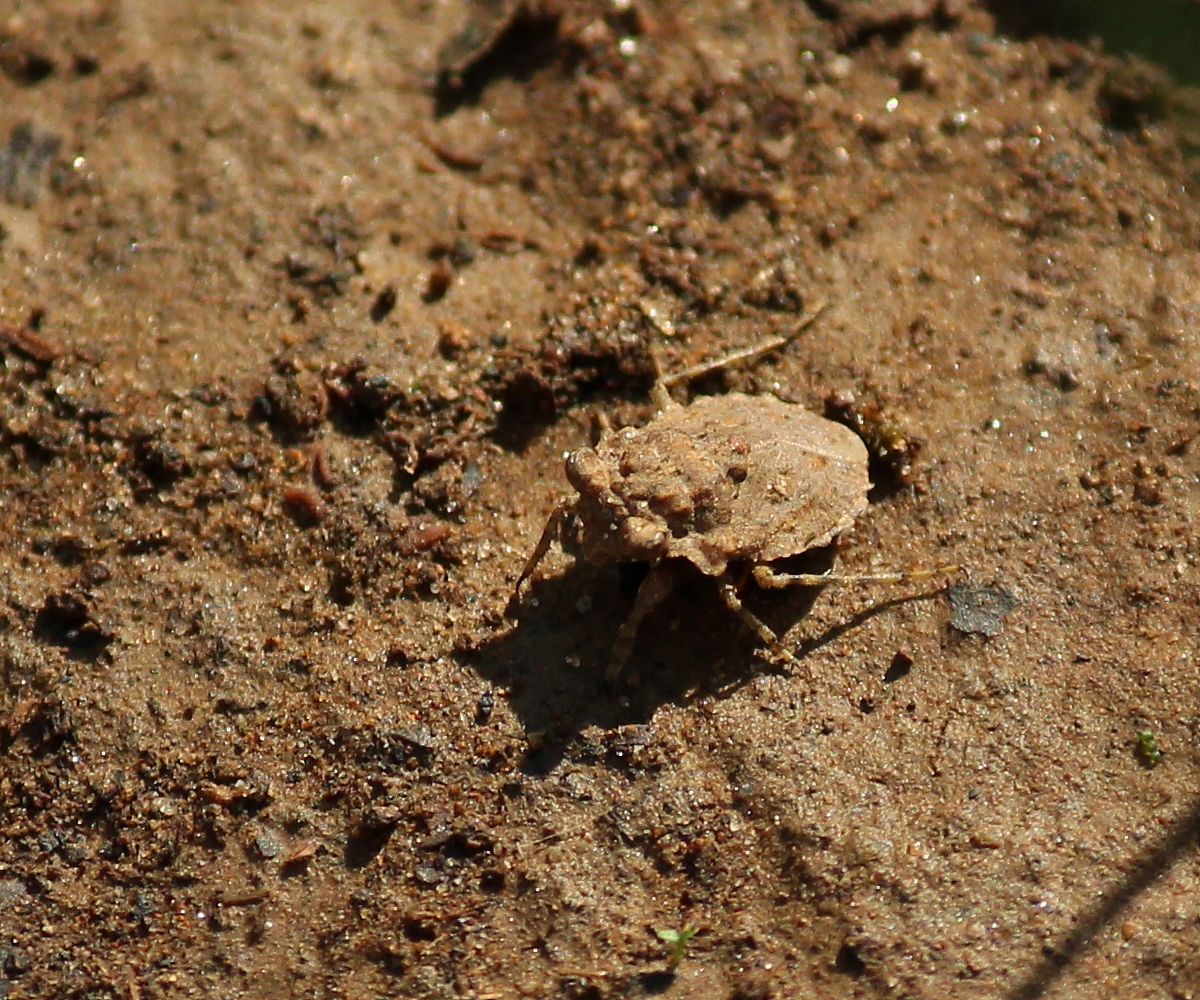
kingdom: Animalia
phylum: Arthropoda
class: Insecta
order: Hemiptera
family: Gelastocoridae
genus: Gelastocoris
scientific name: Gelastocoris oculatus
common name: Toad bug
